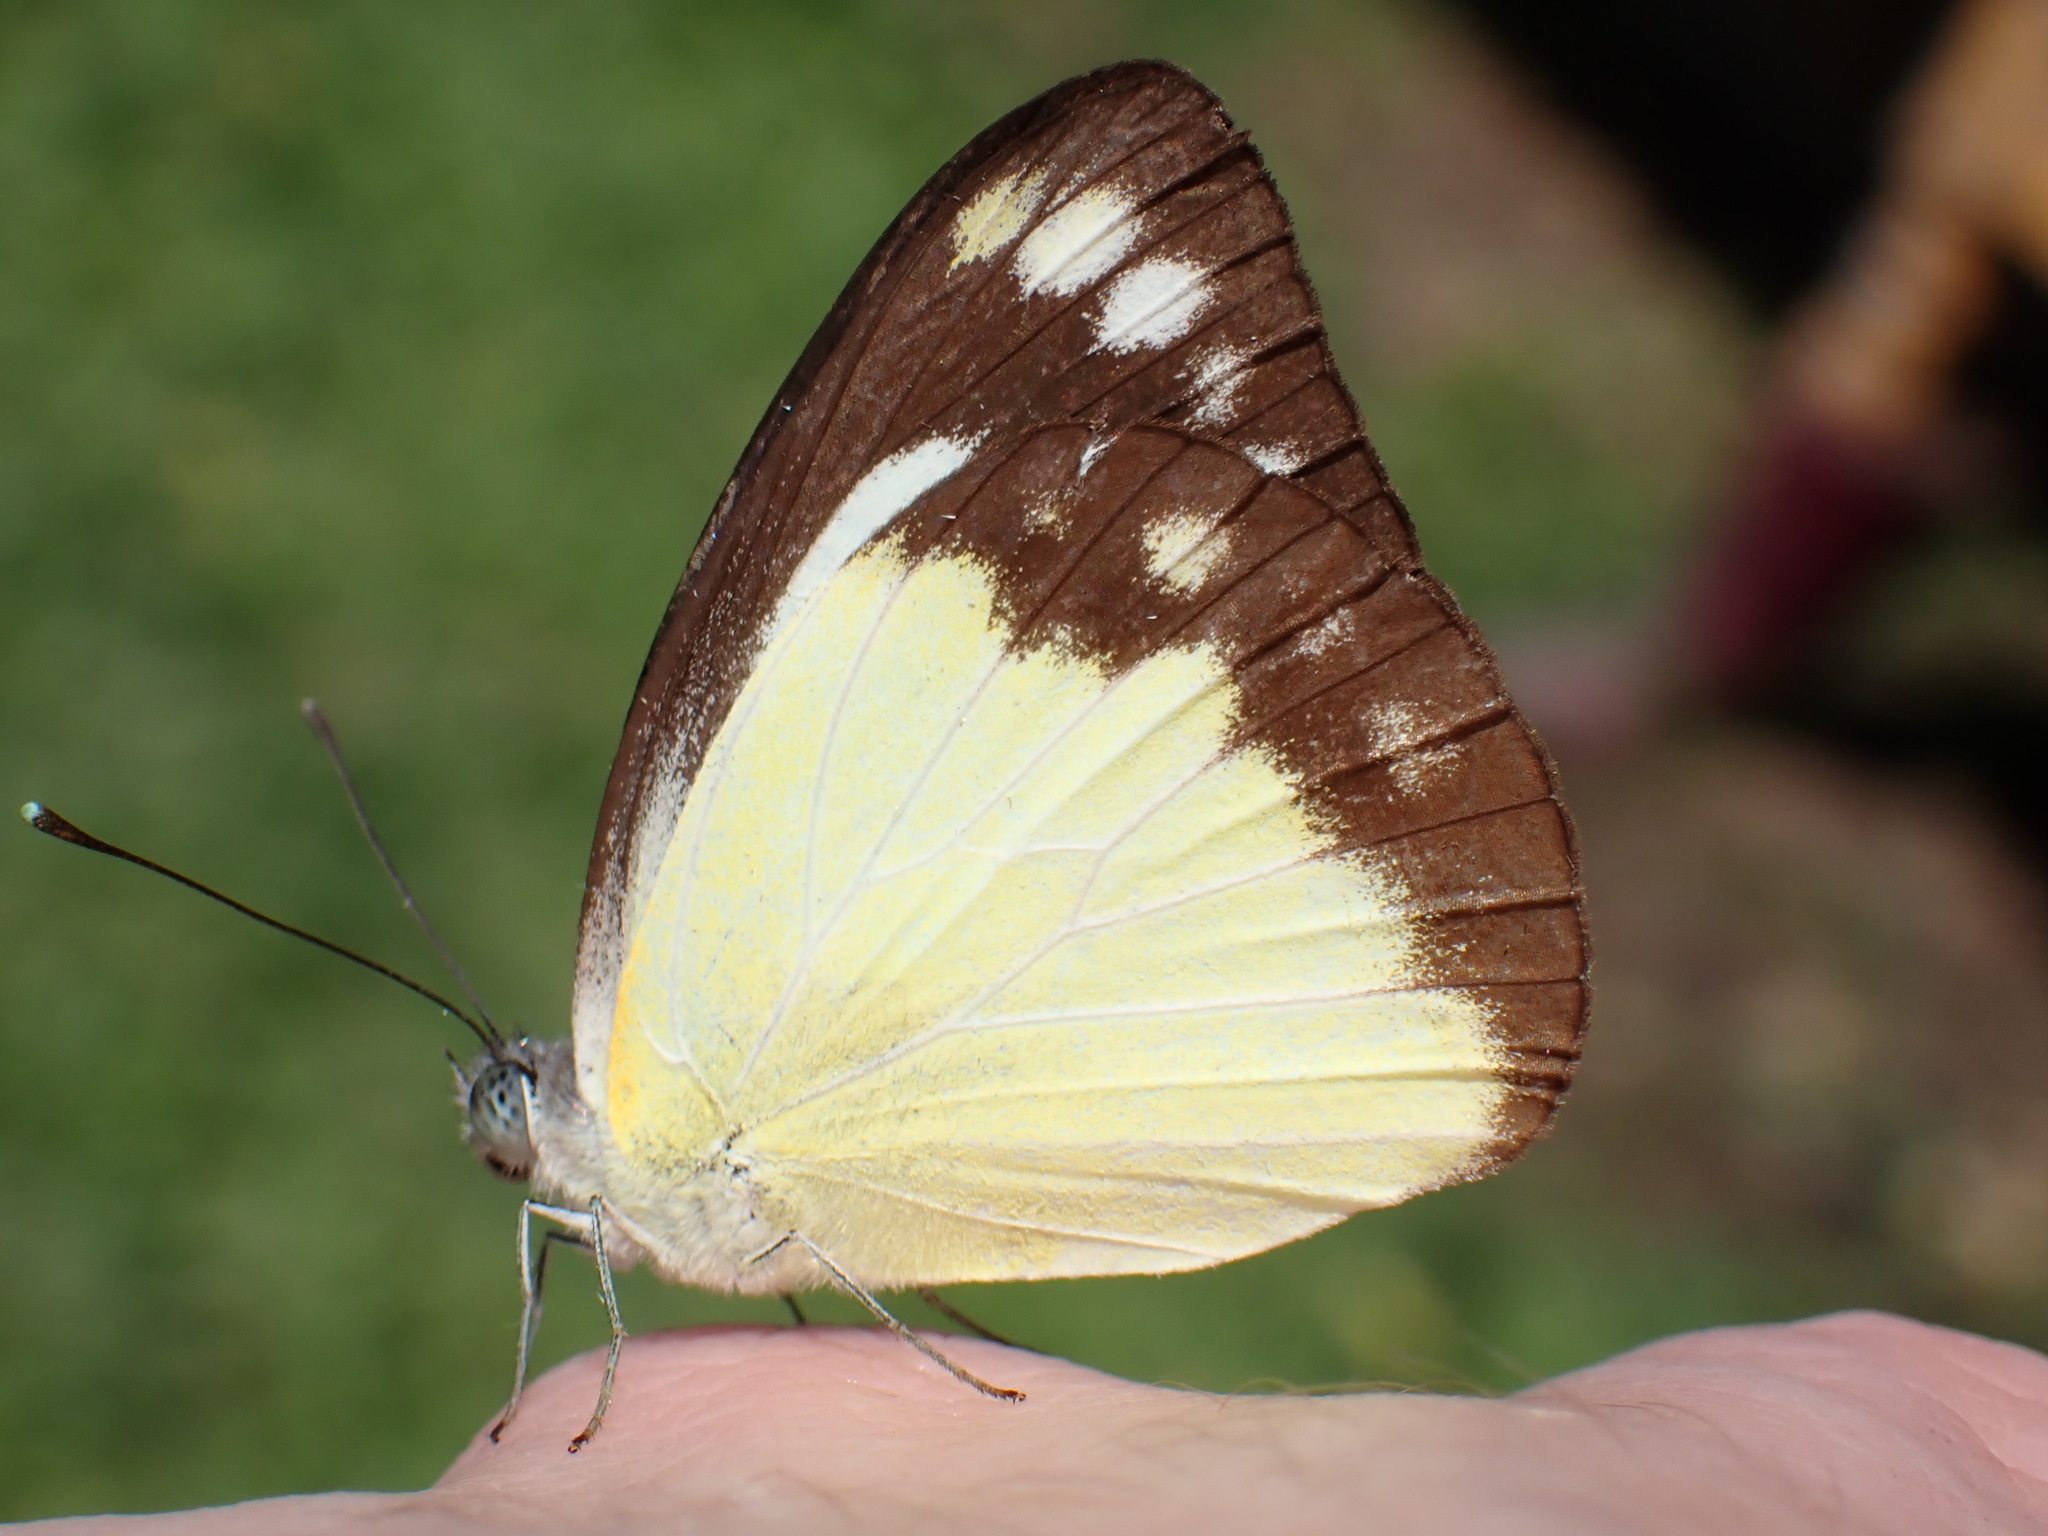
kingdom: Animalia
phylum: Arthropoda
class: Insecta
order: Lepidoptera
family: Pieridae
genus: Cepora
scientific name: Cepora perimale
